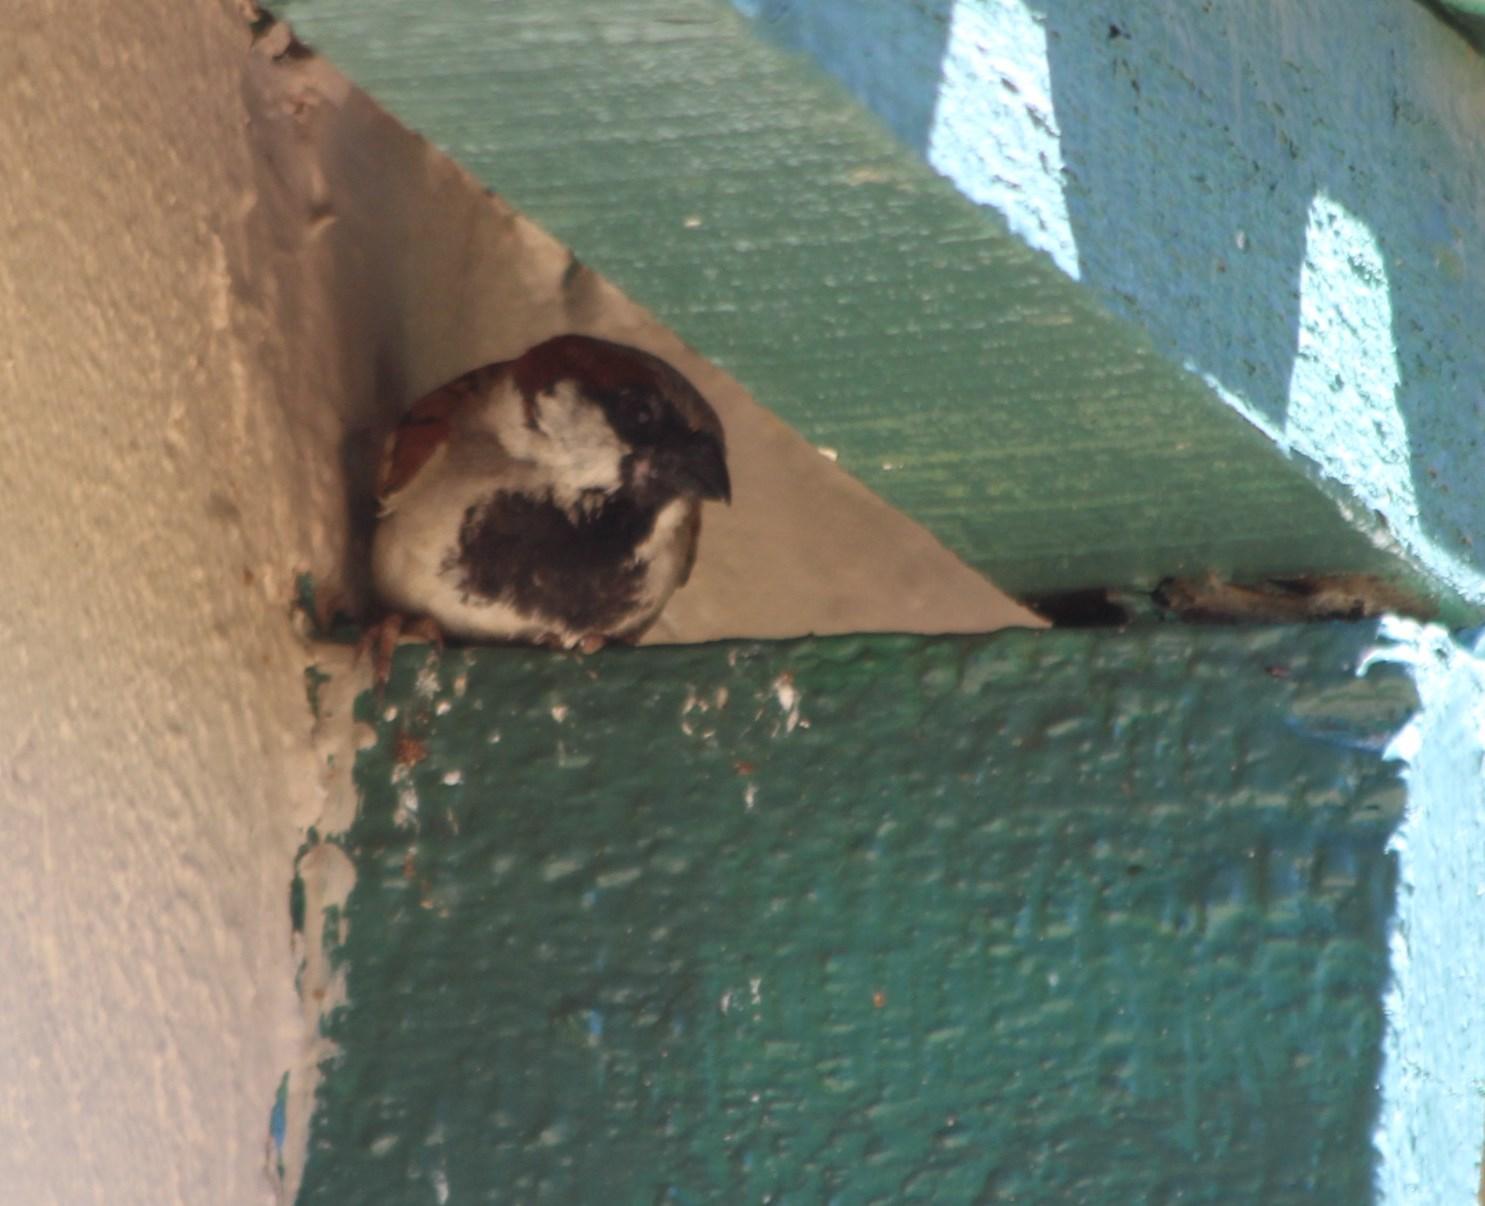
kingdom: Animalia
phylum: Chordata
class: Aves
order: Passeriformes
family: Passeridae
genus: Passer
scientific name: Passer domesticus
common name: House sparrow
